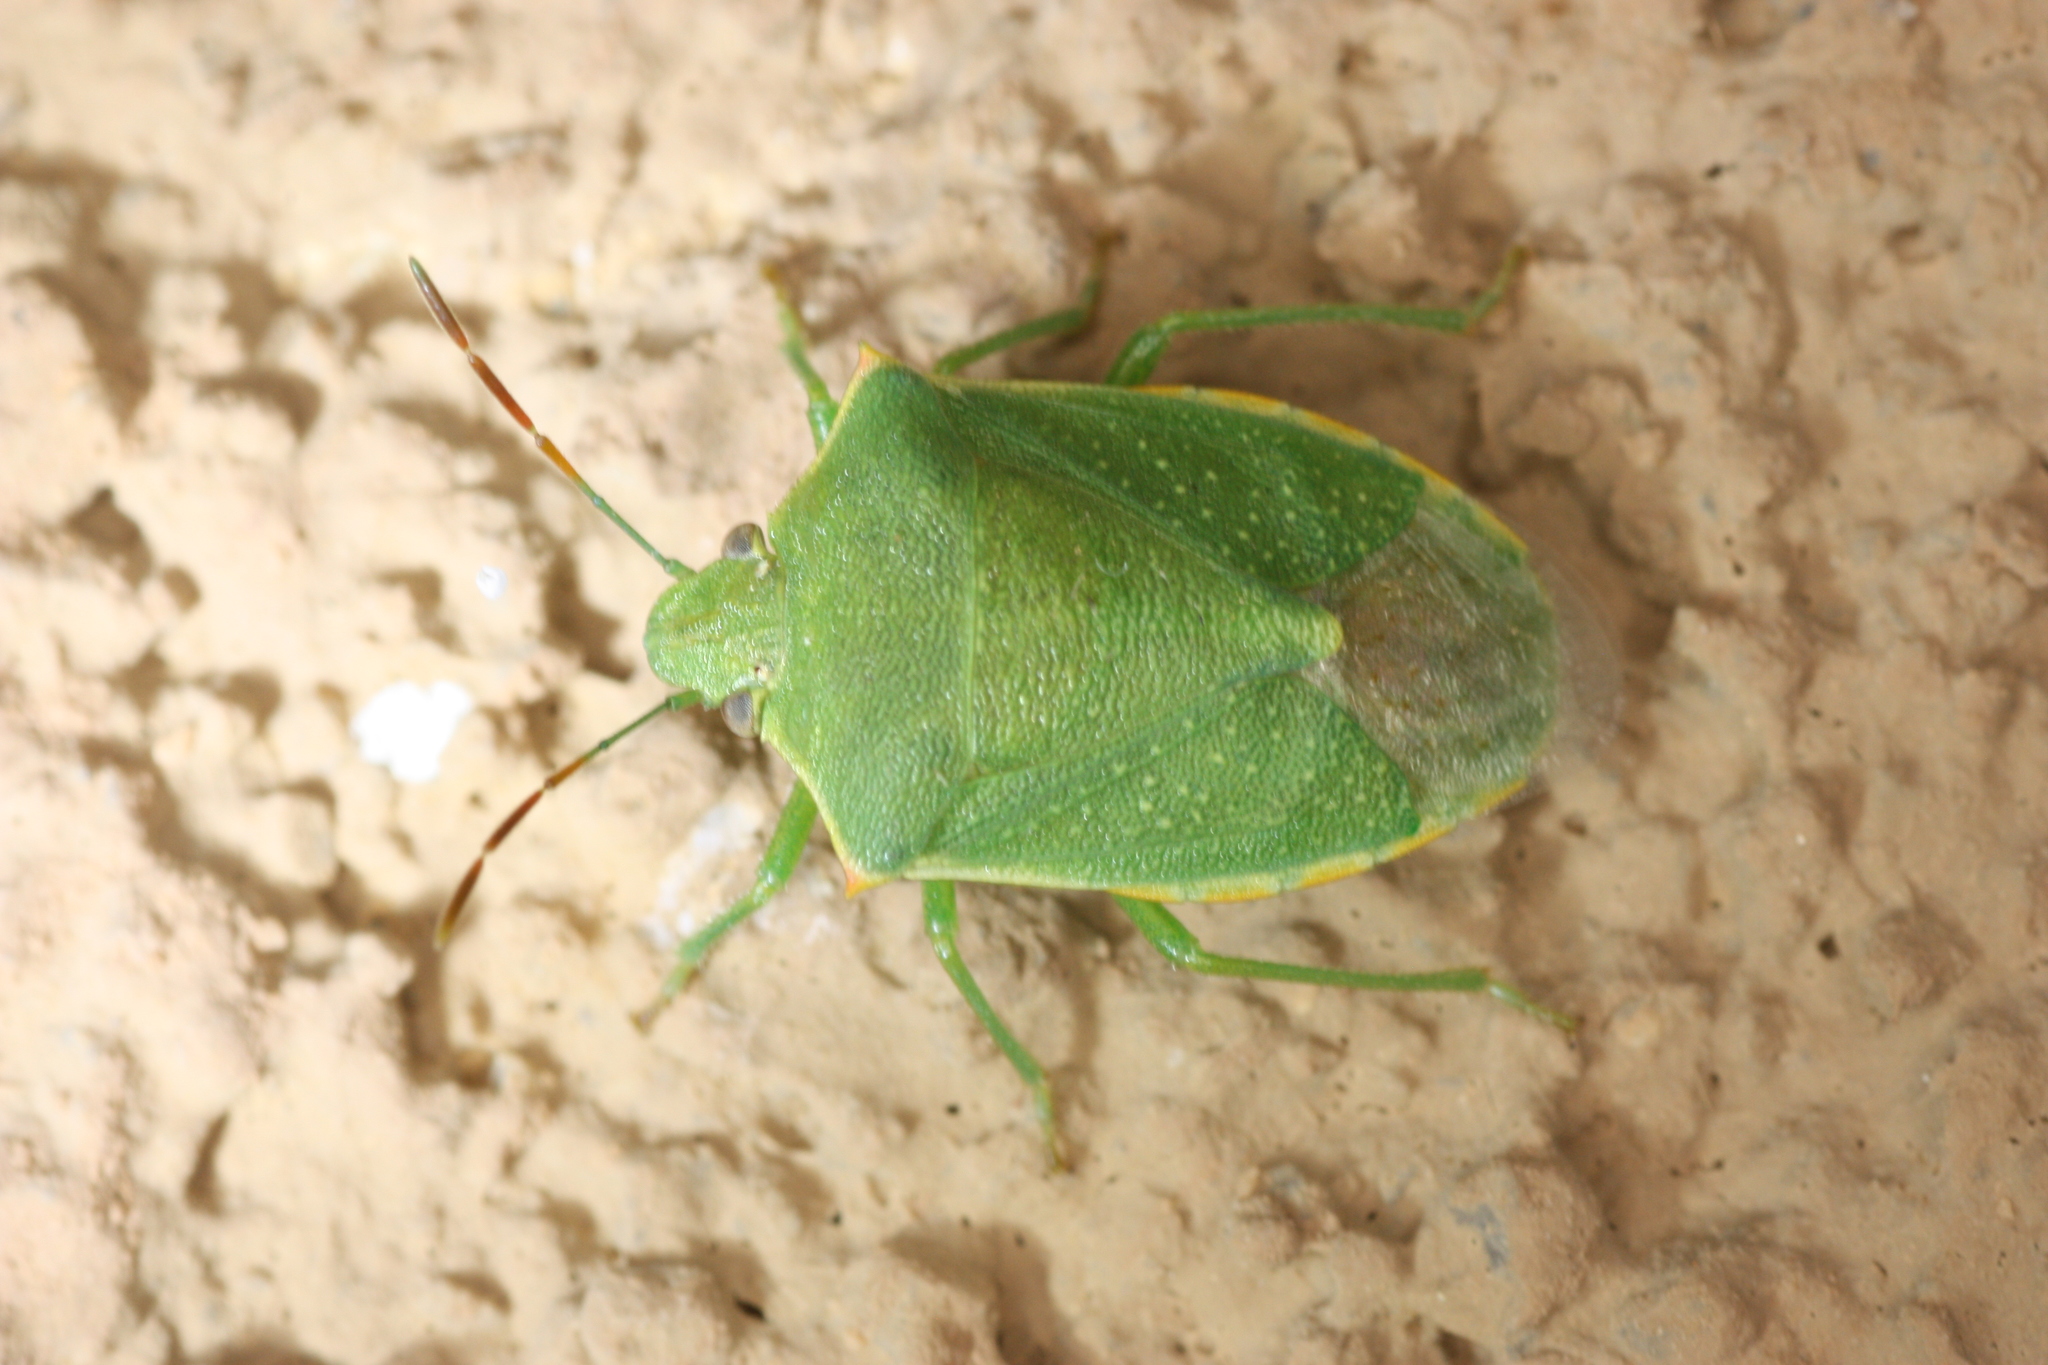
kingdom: Animalia
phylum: Arthropoda
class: Insecta
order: Hemiptera
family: Pentatomidae
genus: Thyanta
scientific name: Thyanta accerra
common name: Stink bug
